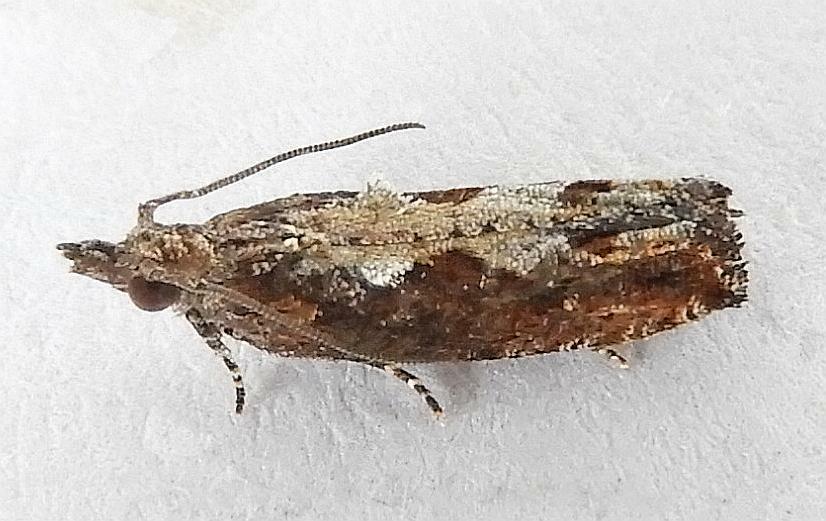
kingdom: Animalia
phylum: Arthropoda
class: Insecta
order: Lepidoptera
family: Tortricidae
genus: Strepsicrates
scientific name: Strepsicrates smithiana
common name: Bayberry leaftier moth
